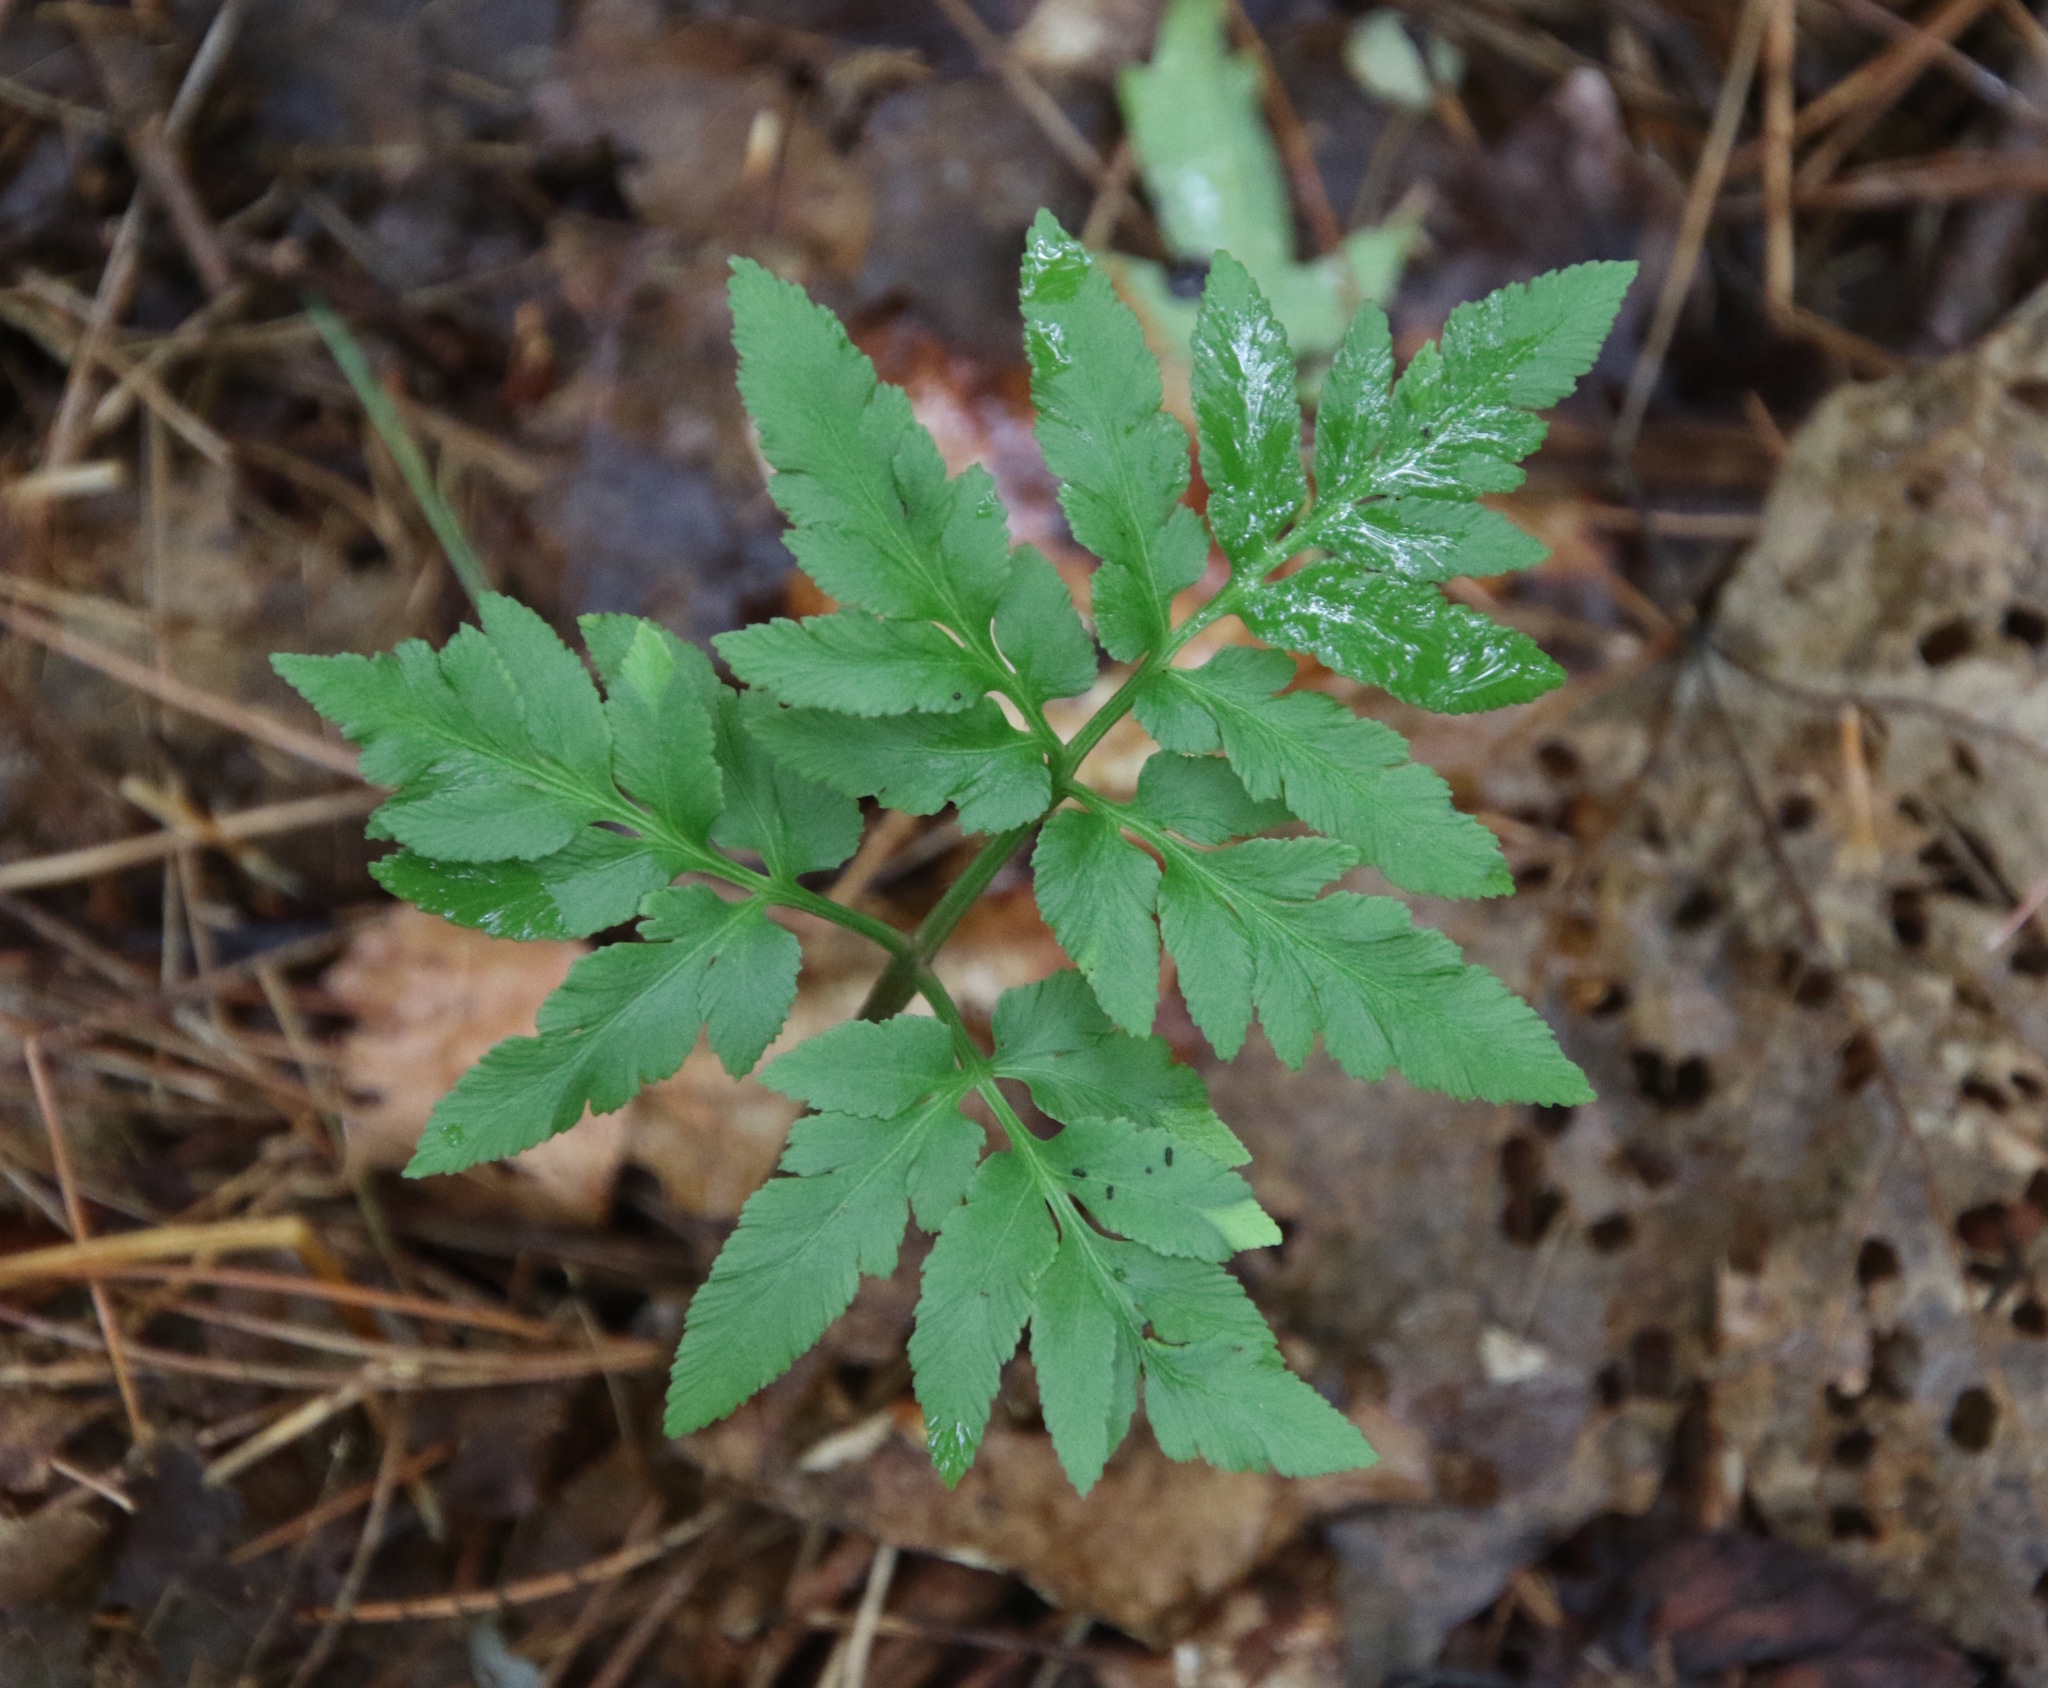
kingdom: Plantae
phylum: Tracheophyta
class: Polypodiopsida
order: Ophioglossales
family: Ophioglossaceae
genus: Sceptridium
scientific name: Sceptridium dissectum
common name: Cut-leaved grapefern
